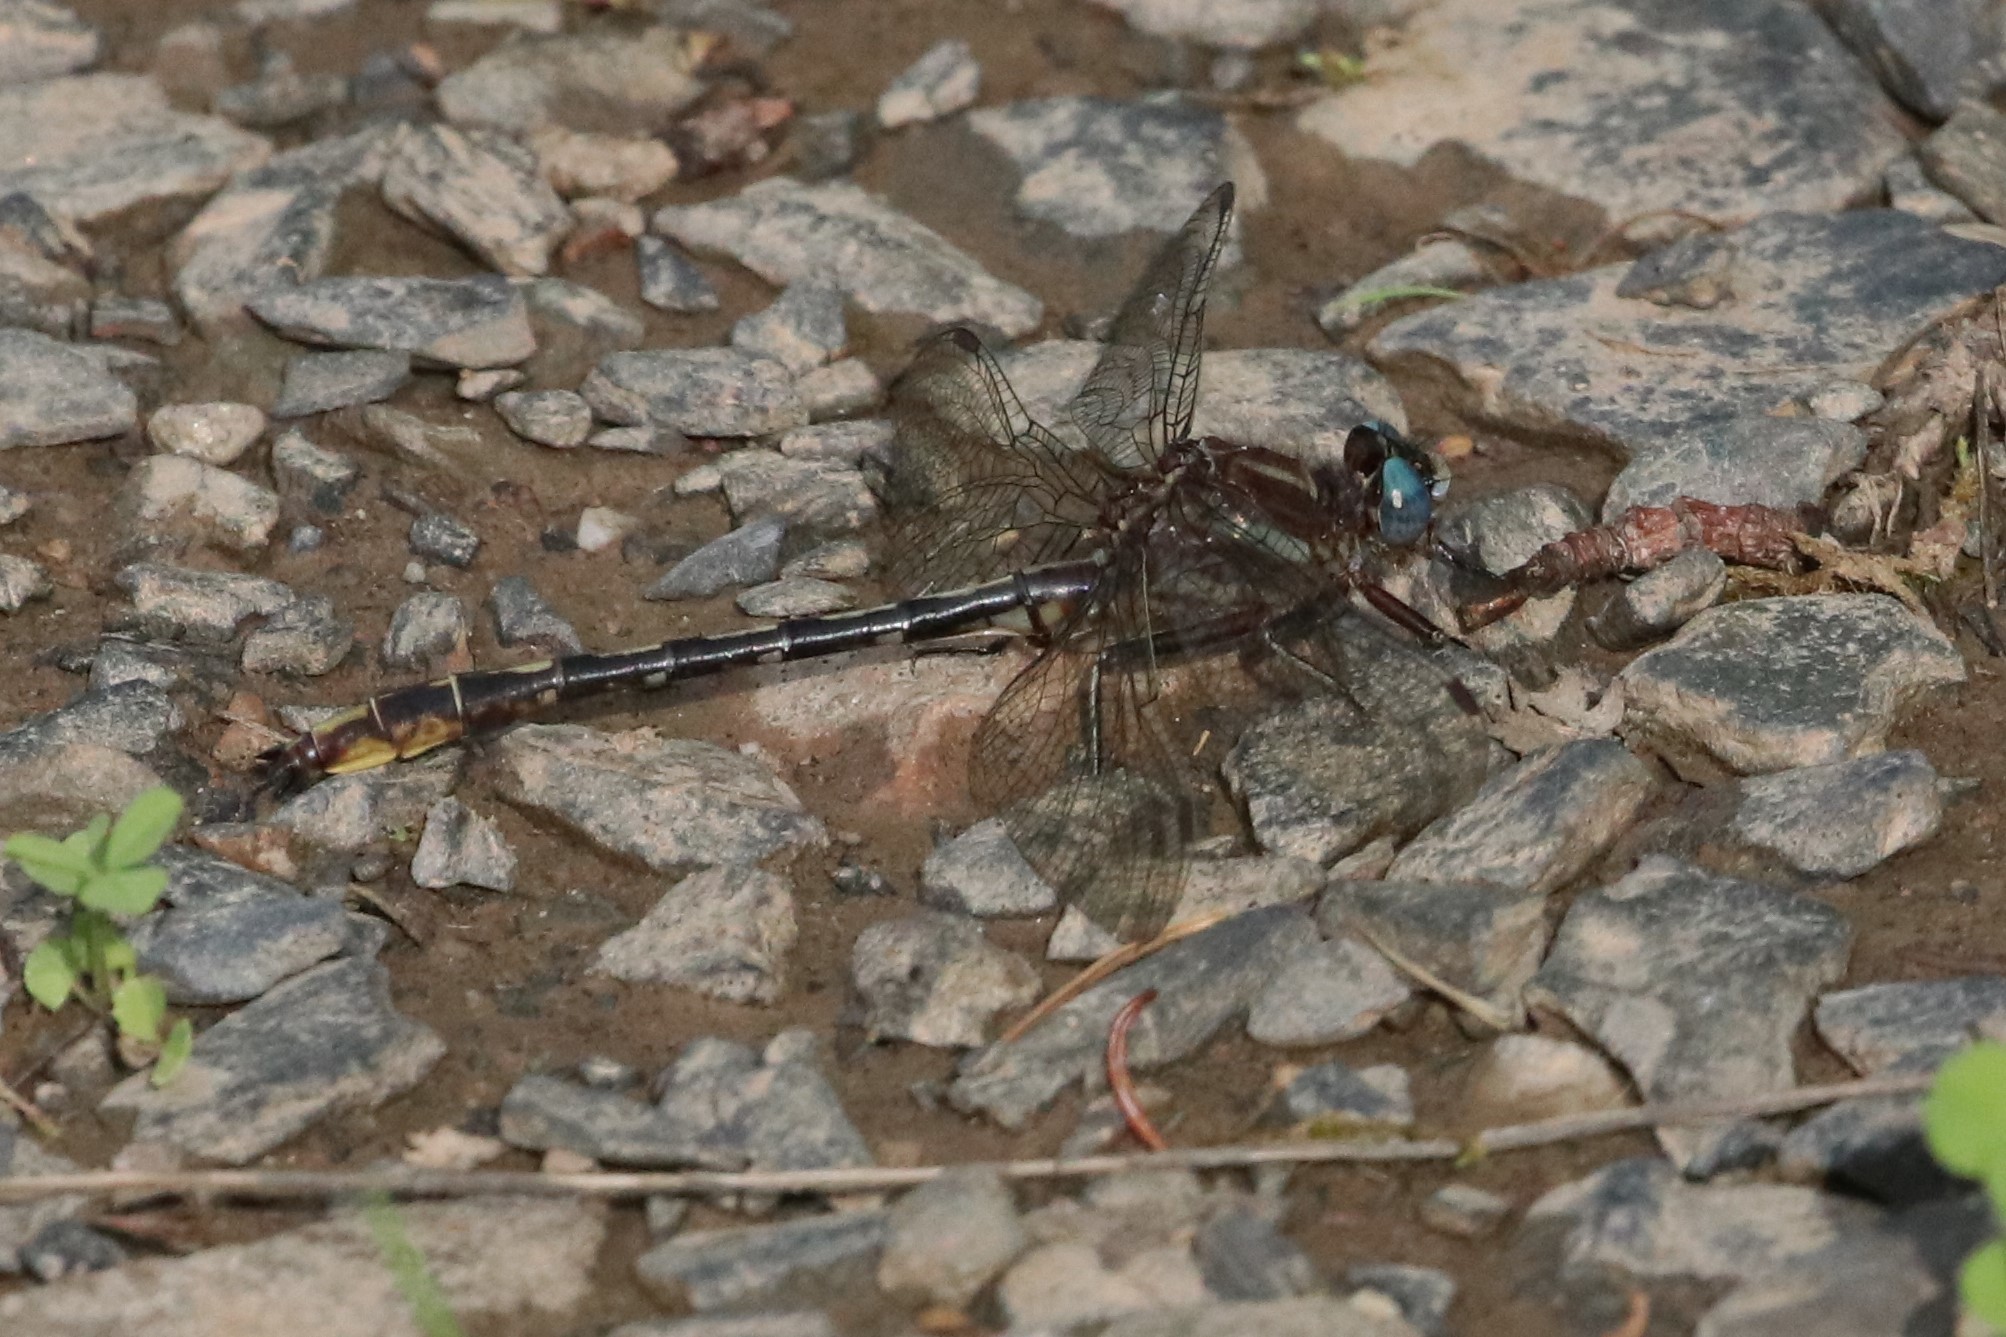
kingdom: Animalia
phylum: Arthropoda
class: Insecta
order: Odonata
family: Gomphidae
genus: Phanogomphus
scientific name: Phanogomphus exilis
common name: Lancet clubtail
